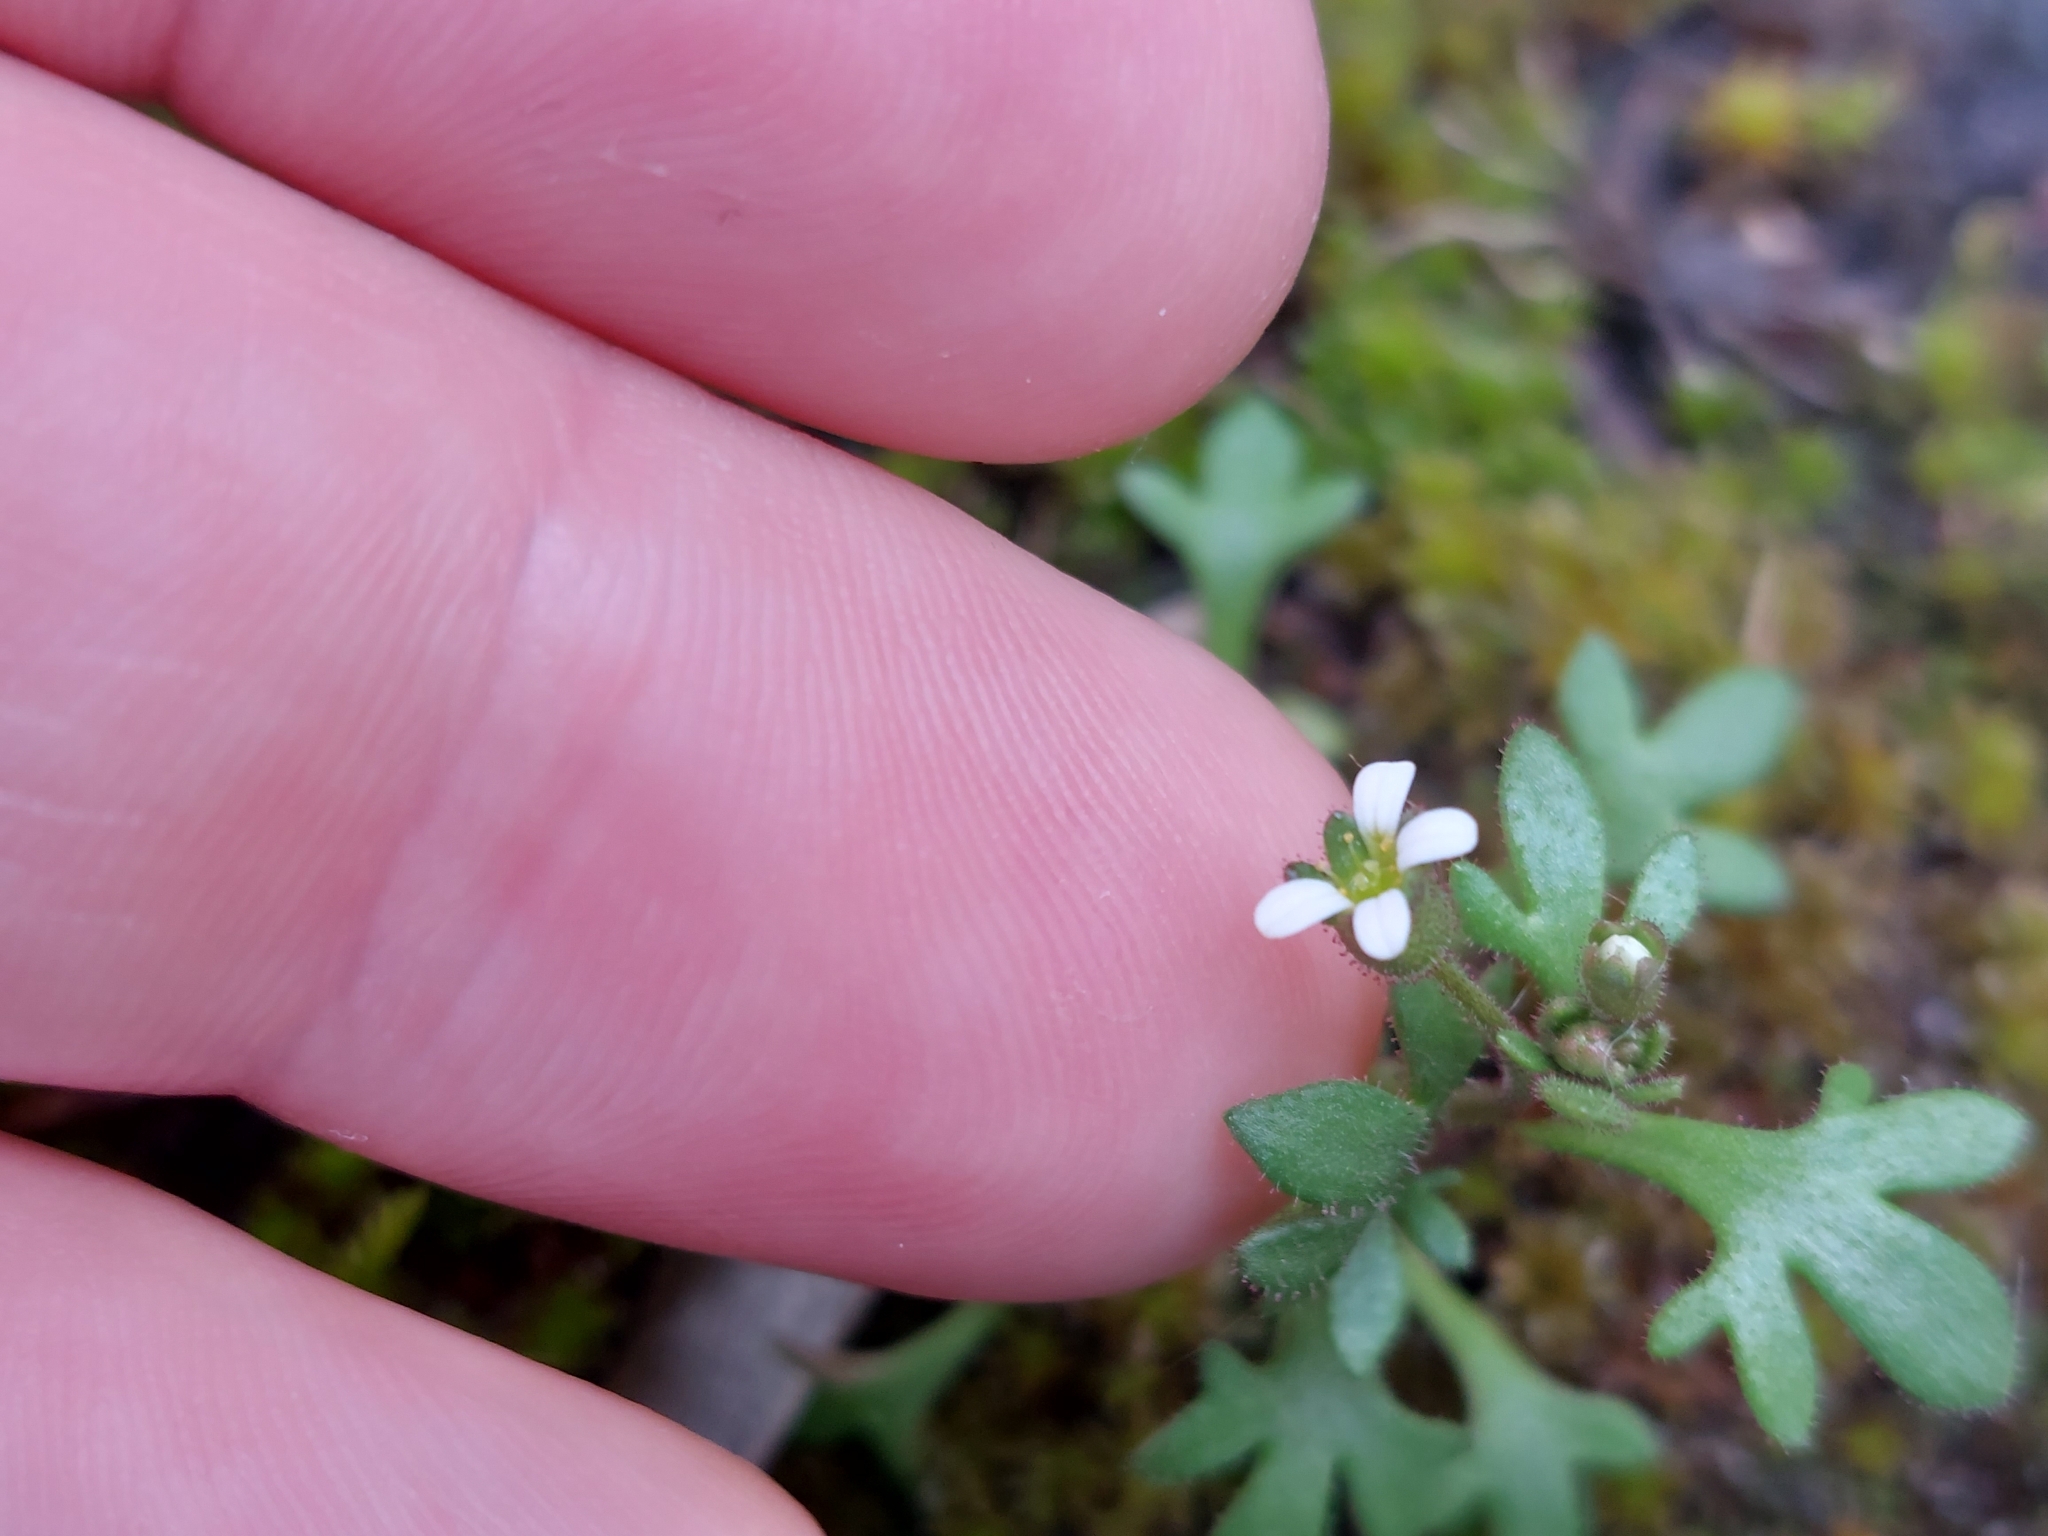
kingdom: Plantae
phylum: Tracheophyta
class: Magnoliopsida
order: Saxifragales
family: Saxifragaceae
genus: Saxifraga
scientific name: Saxifraga tridactylites
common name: Rue-leaved saxifrage
